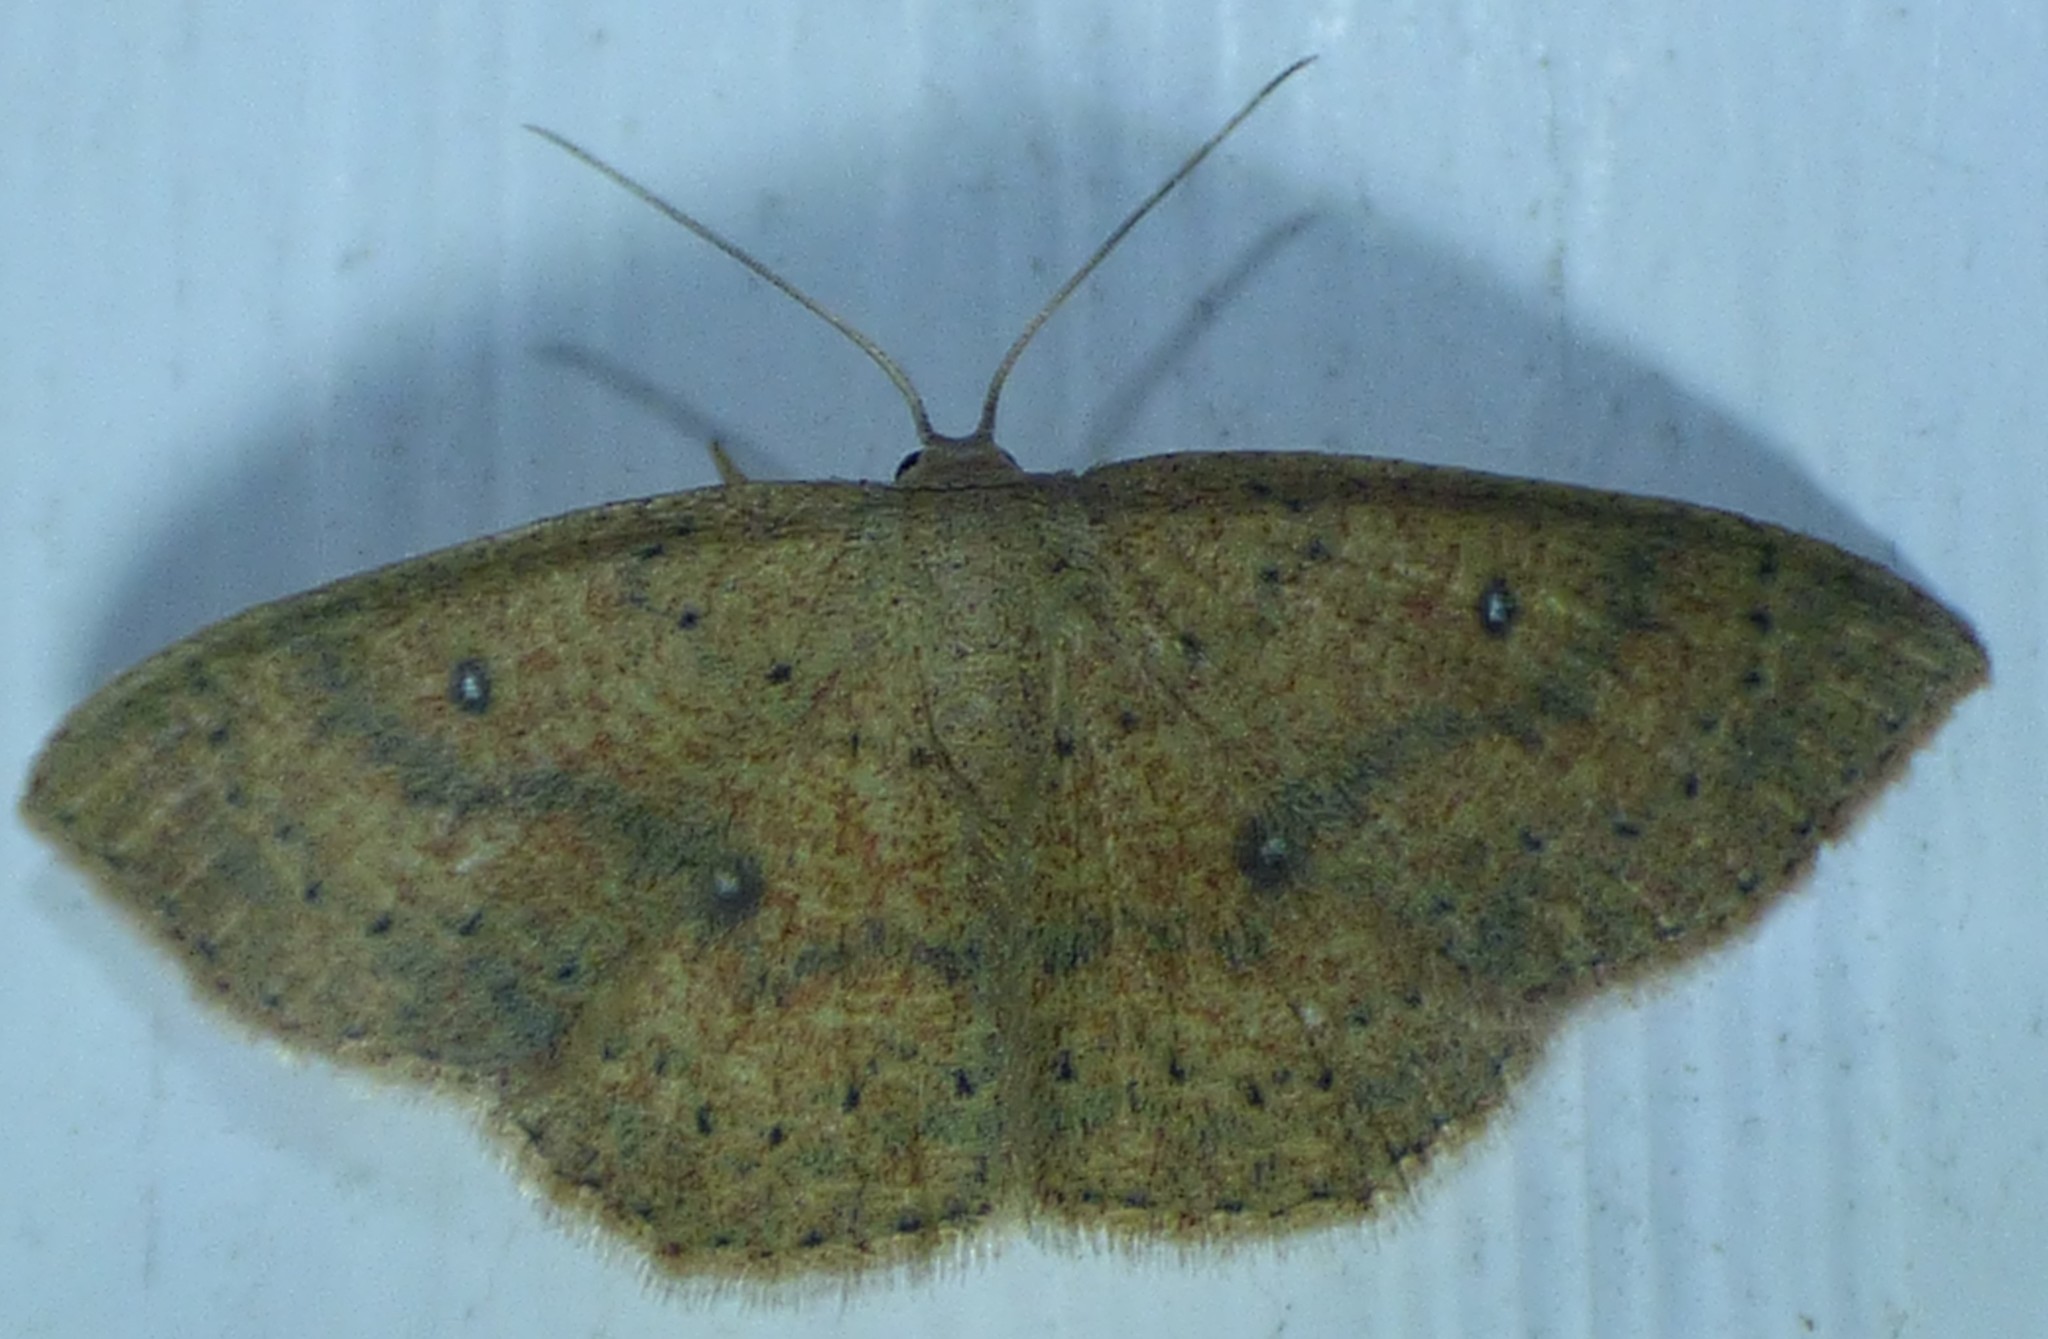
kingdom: Animalia
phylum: Arthropoda
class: Insecta
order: Lepidoptera
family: Geometridae
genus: Cyclophora
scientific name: Cyclophora packardi
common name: Packard's wave
